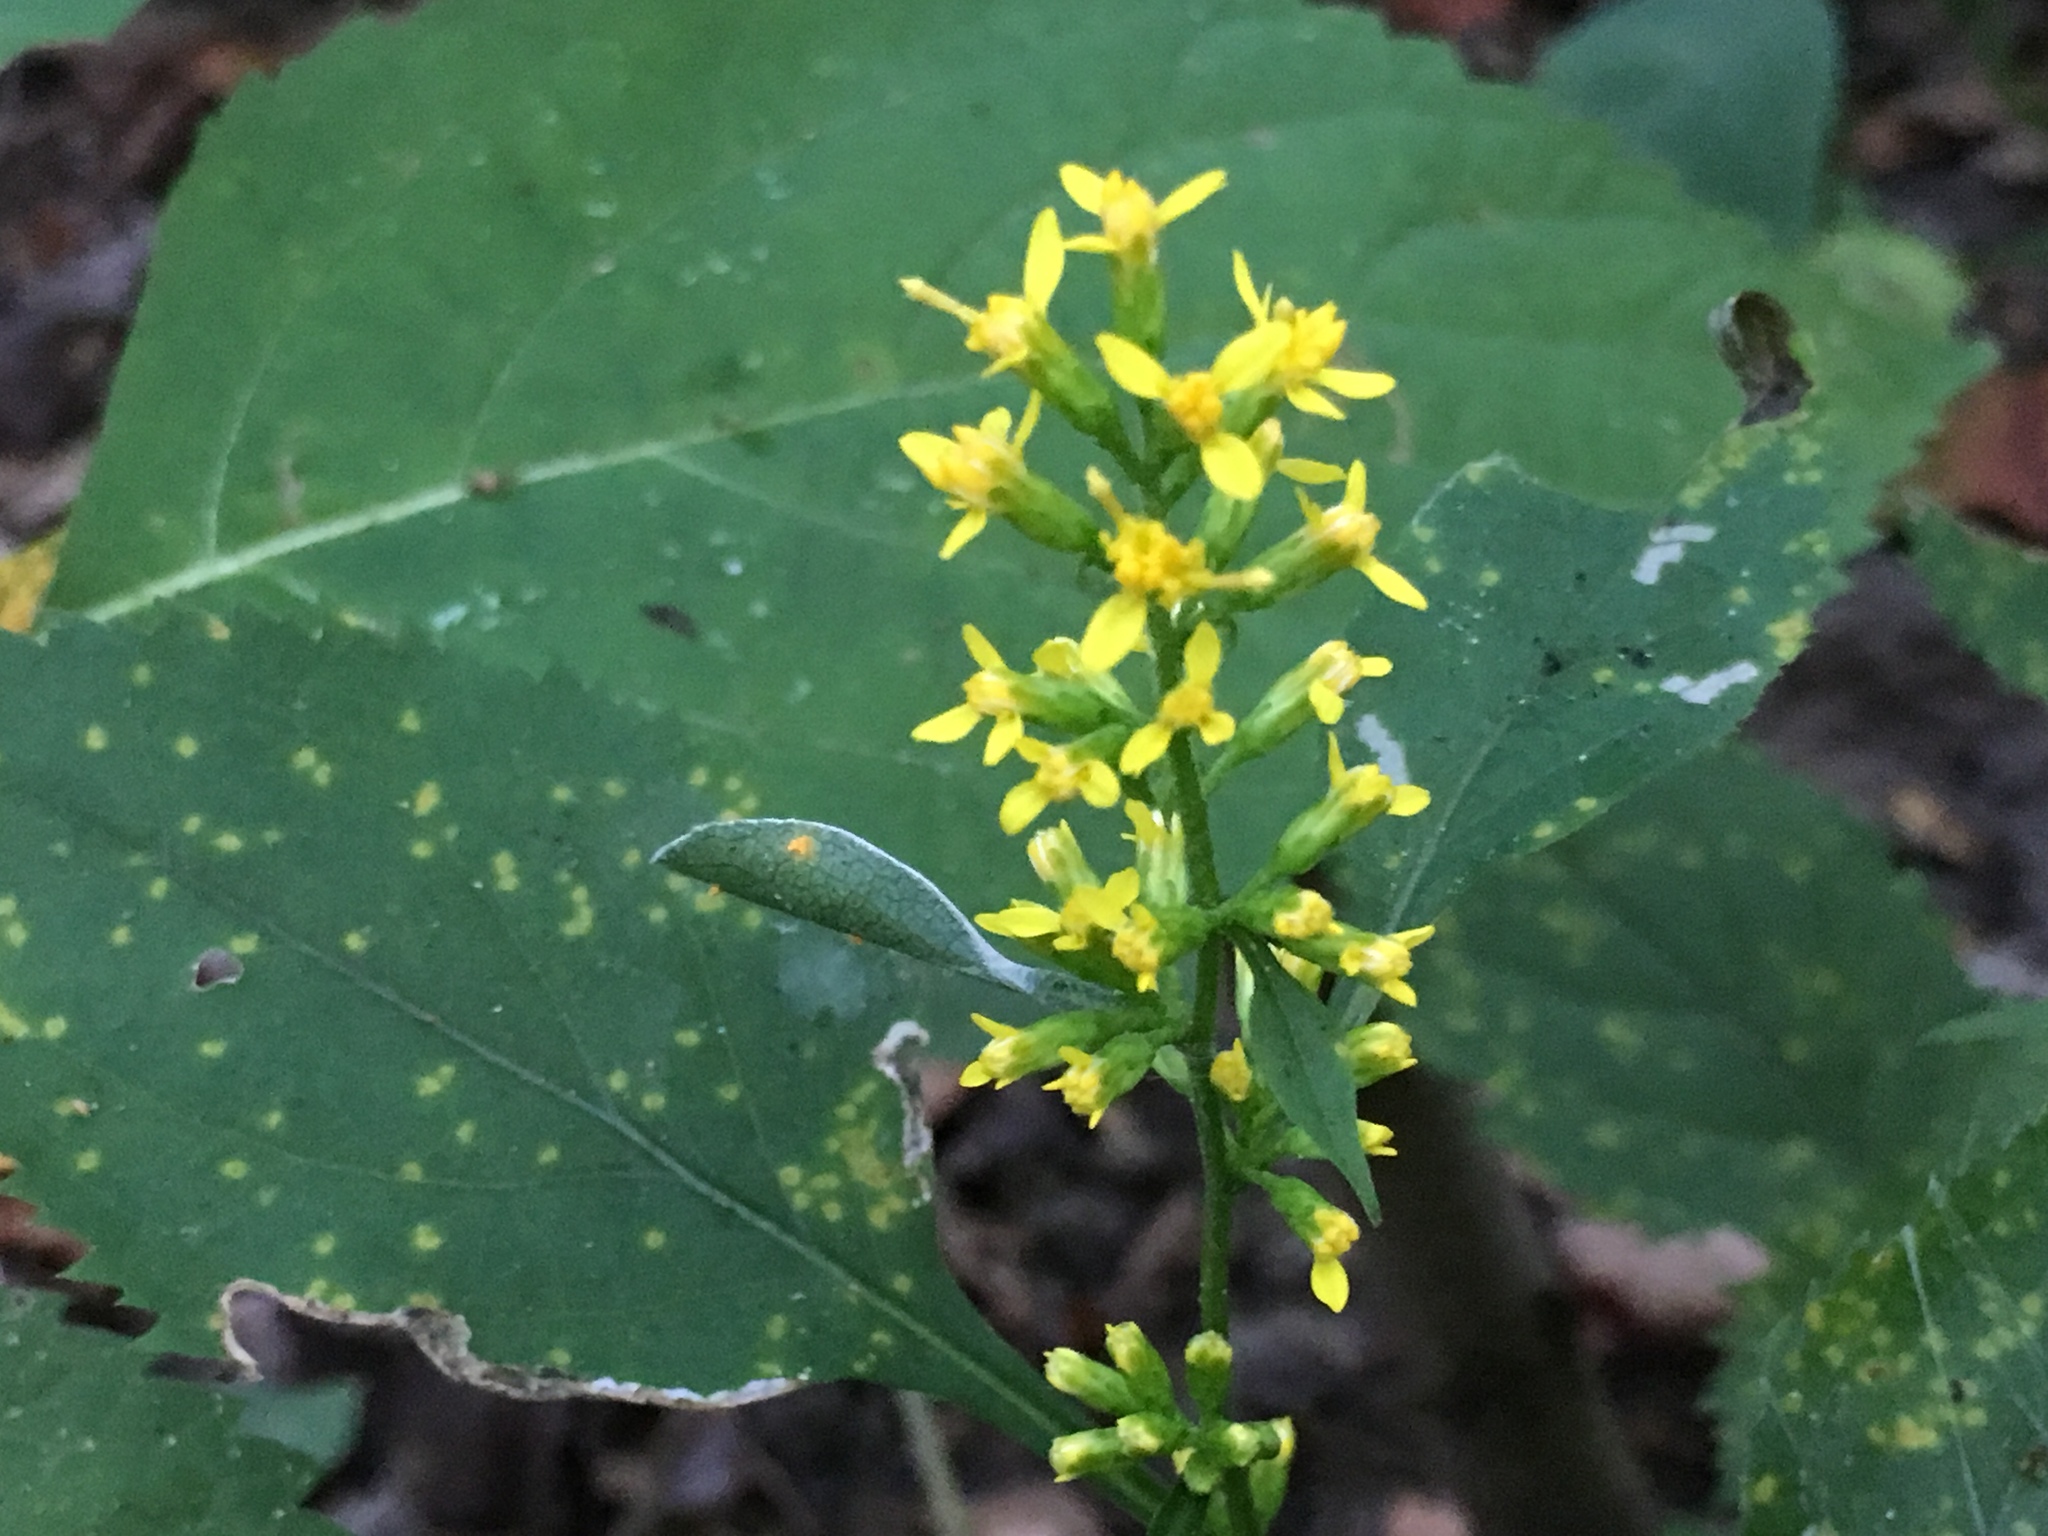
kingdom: Plantae
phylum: Tracheophyta
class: Magnoliopsida
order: Asterales
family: Asteraceae
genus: Solidago
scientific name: Solidago flexicaulis
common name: Zig-zag goldenrod
